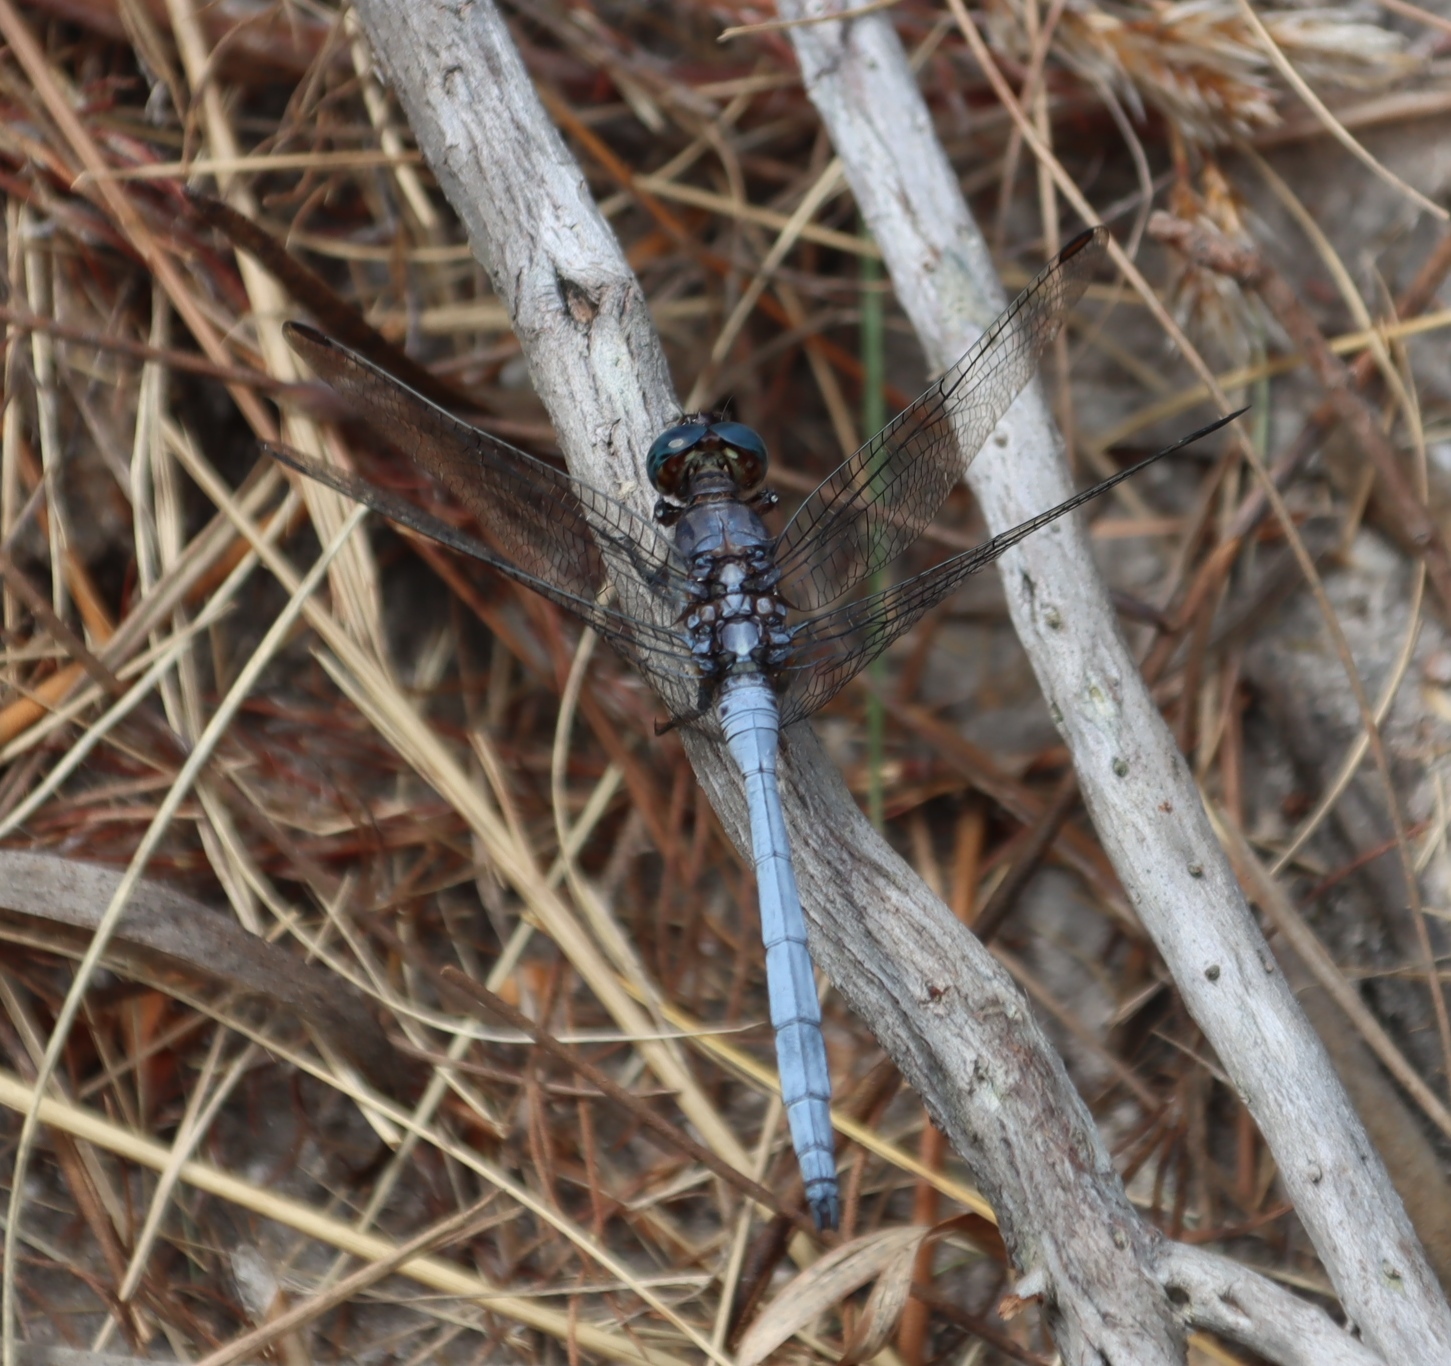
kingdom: Animalia
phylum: Arthropoda
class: Insecta
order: Odonata
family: Libellulidae
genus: Orthetrum
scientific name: Orthetrum julia
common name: Julia skimmer
